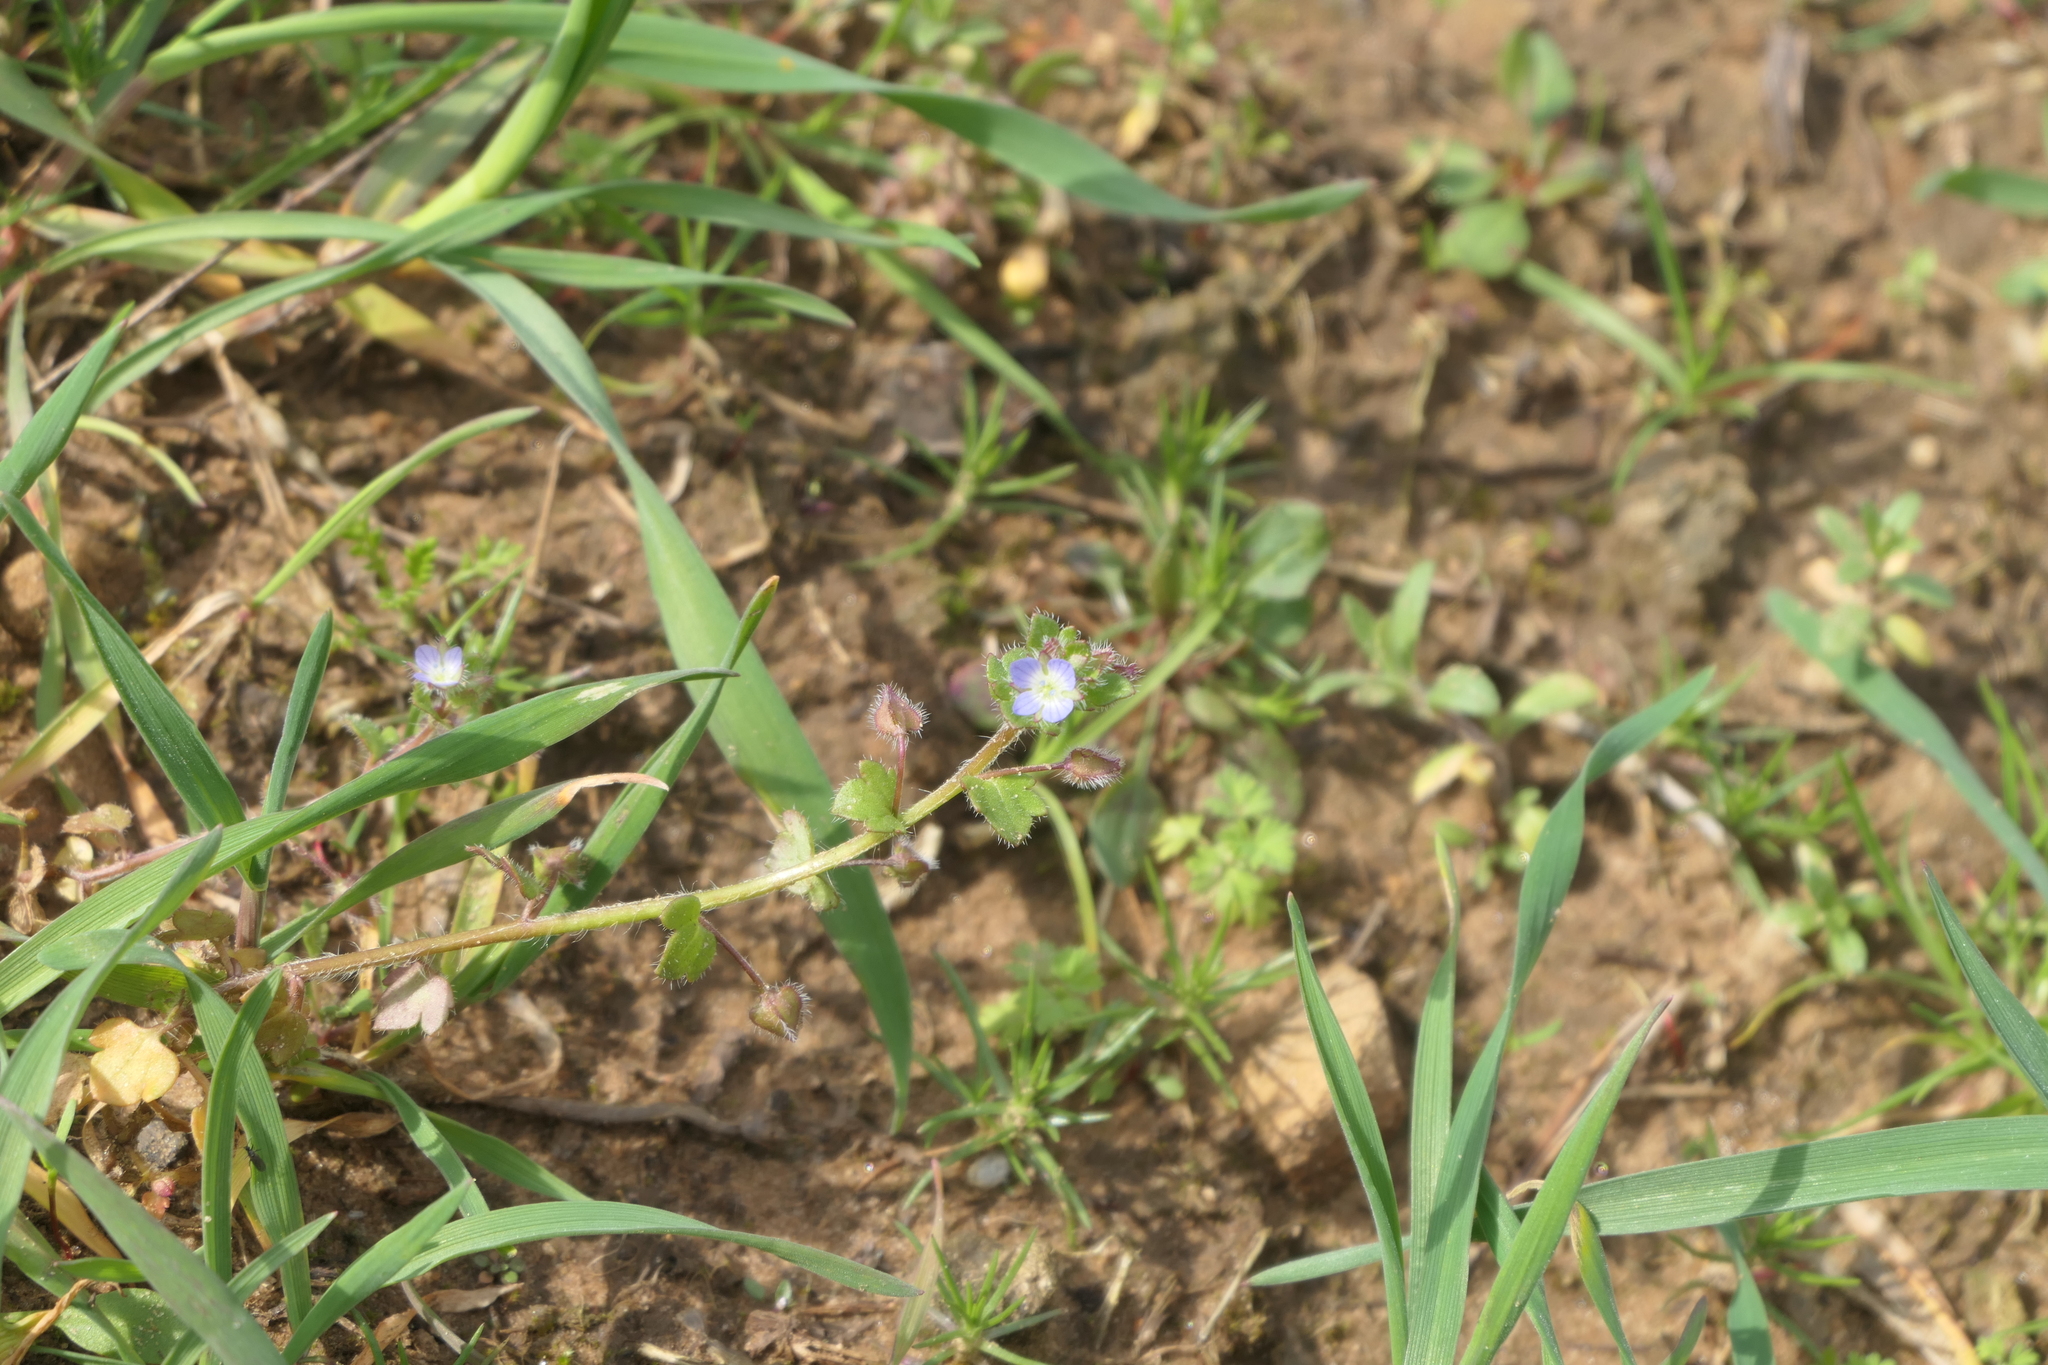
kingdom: Plantae
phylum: Tracheophyta
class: Magnoliopsida
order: Lamiales
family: Plantaginaceae
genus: Veronica
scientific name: Veronica hederifolia
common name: Ivy-leaved speedwell
